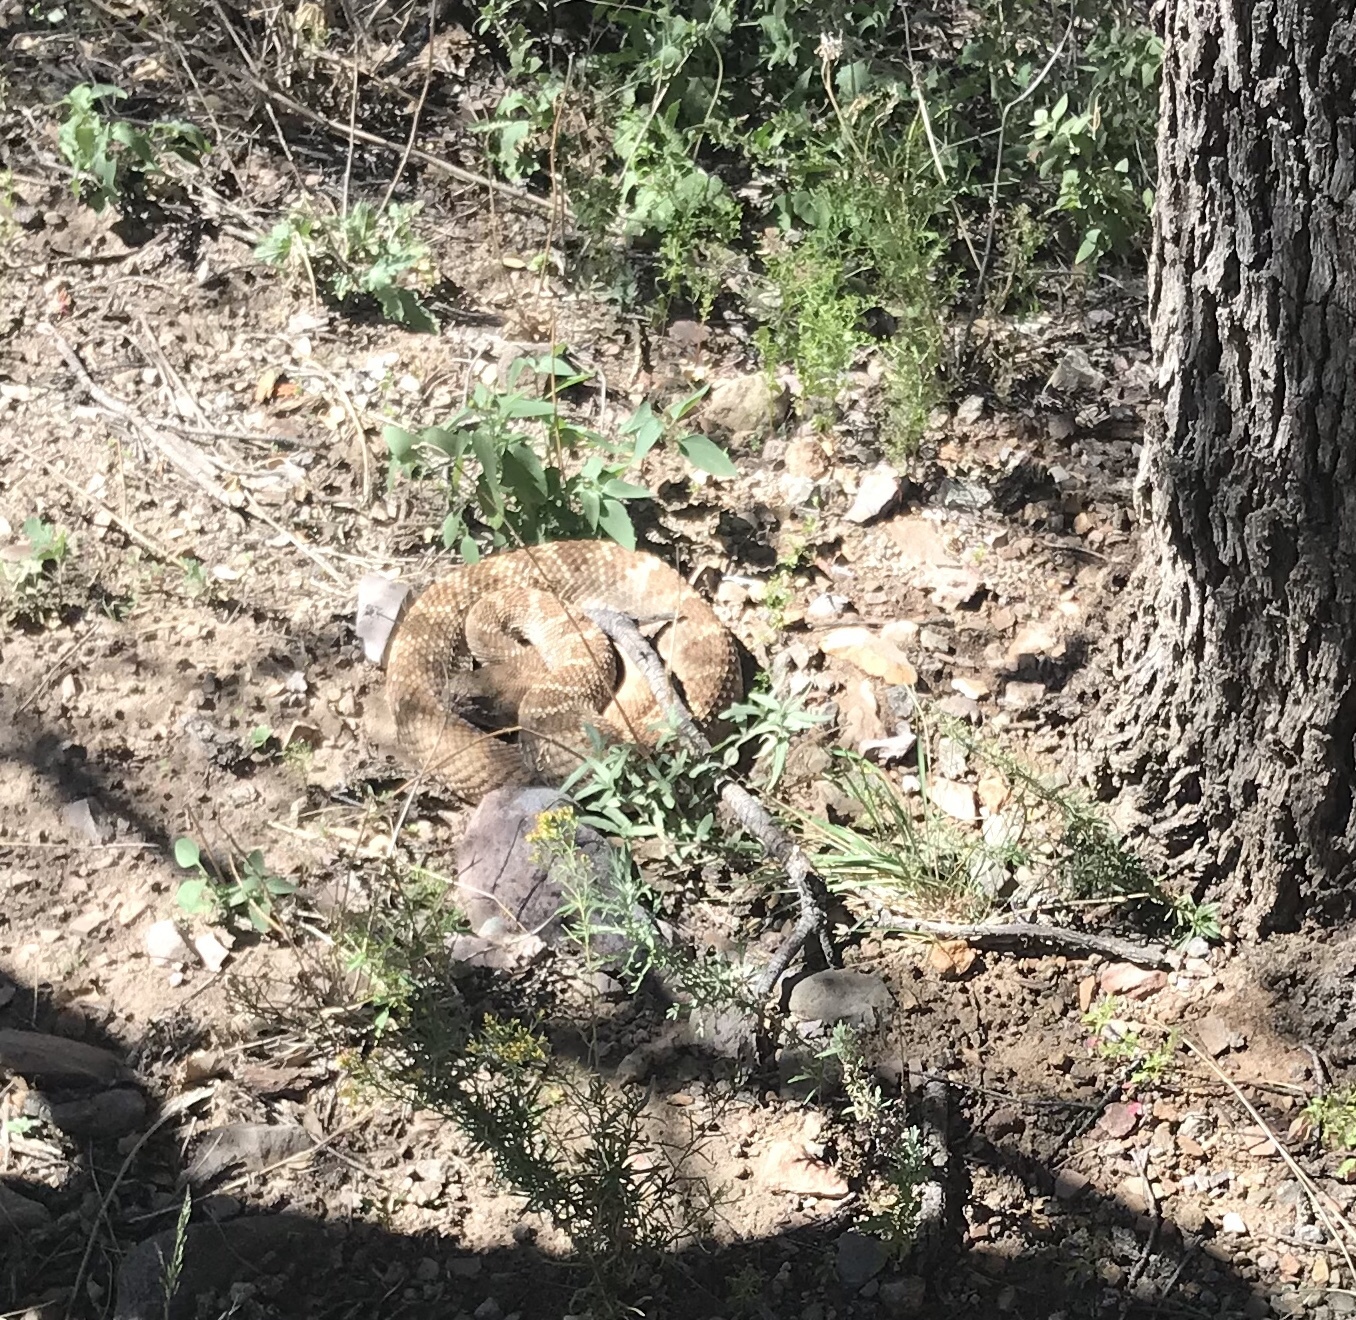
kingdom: Animalia
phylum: Chordata
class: Squamata
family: Viperidae
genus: Crotalus
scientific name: Crotalus atrox
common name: Western diamond-backed rattlesnake
